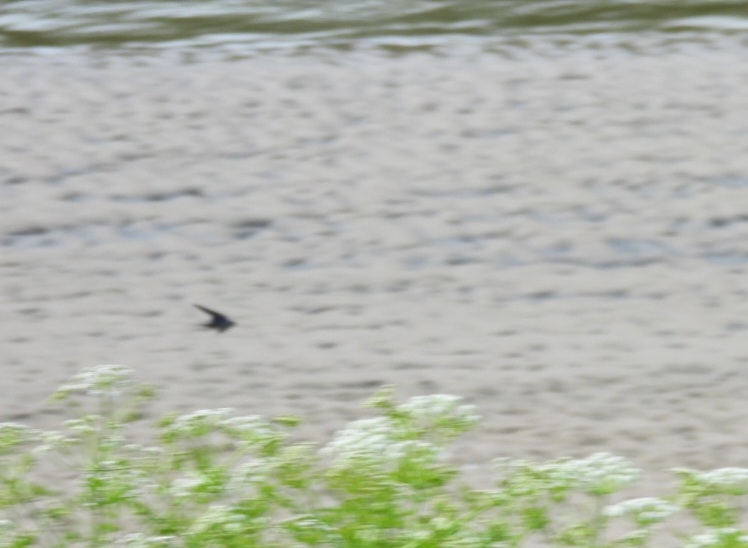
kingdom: Animalia
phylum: Chordata
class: Aves
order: Passeriformes
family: Hirundinidae
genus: Hirundo
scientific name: Hirundo rustica
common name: Barn swallow
